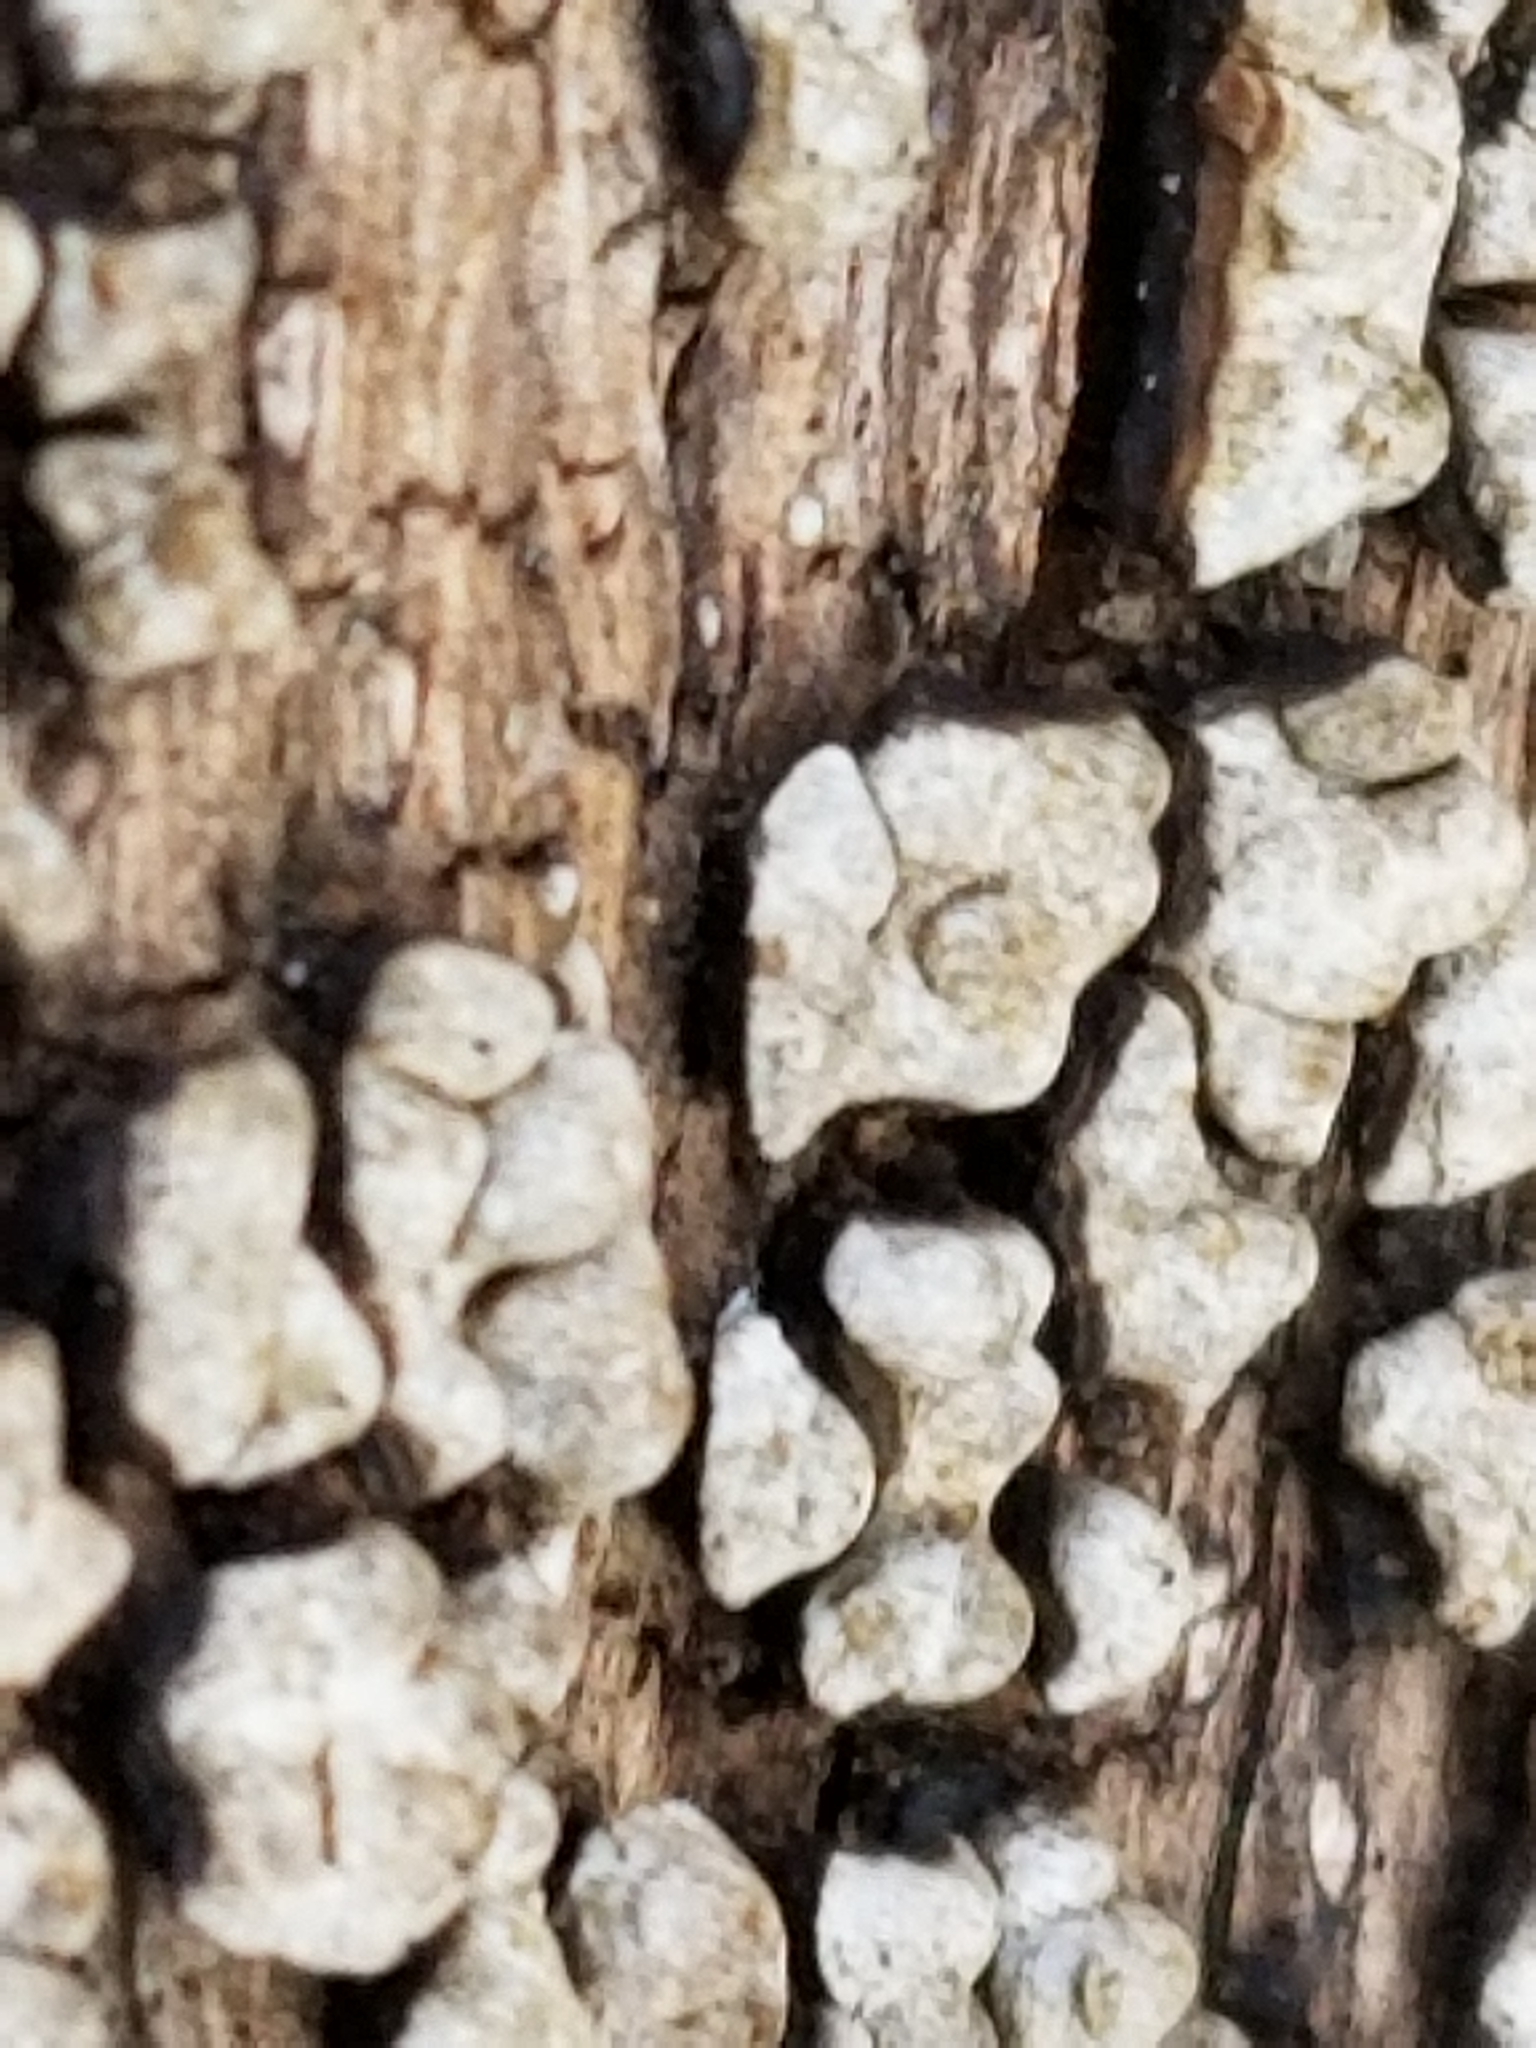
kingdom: Fungi
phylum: Basidiomycota
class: Agaricomycetes
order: Russulales
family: Stereaceae
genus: Xylobolus
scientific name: Xylobolus frustulatus
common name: Ceramic parchment
